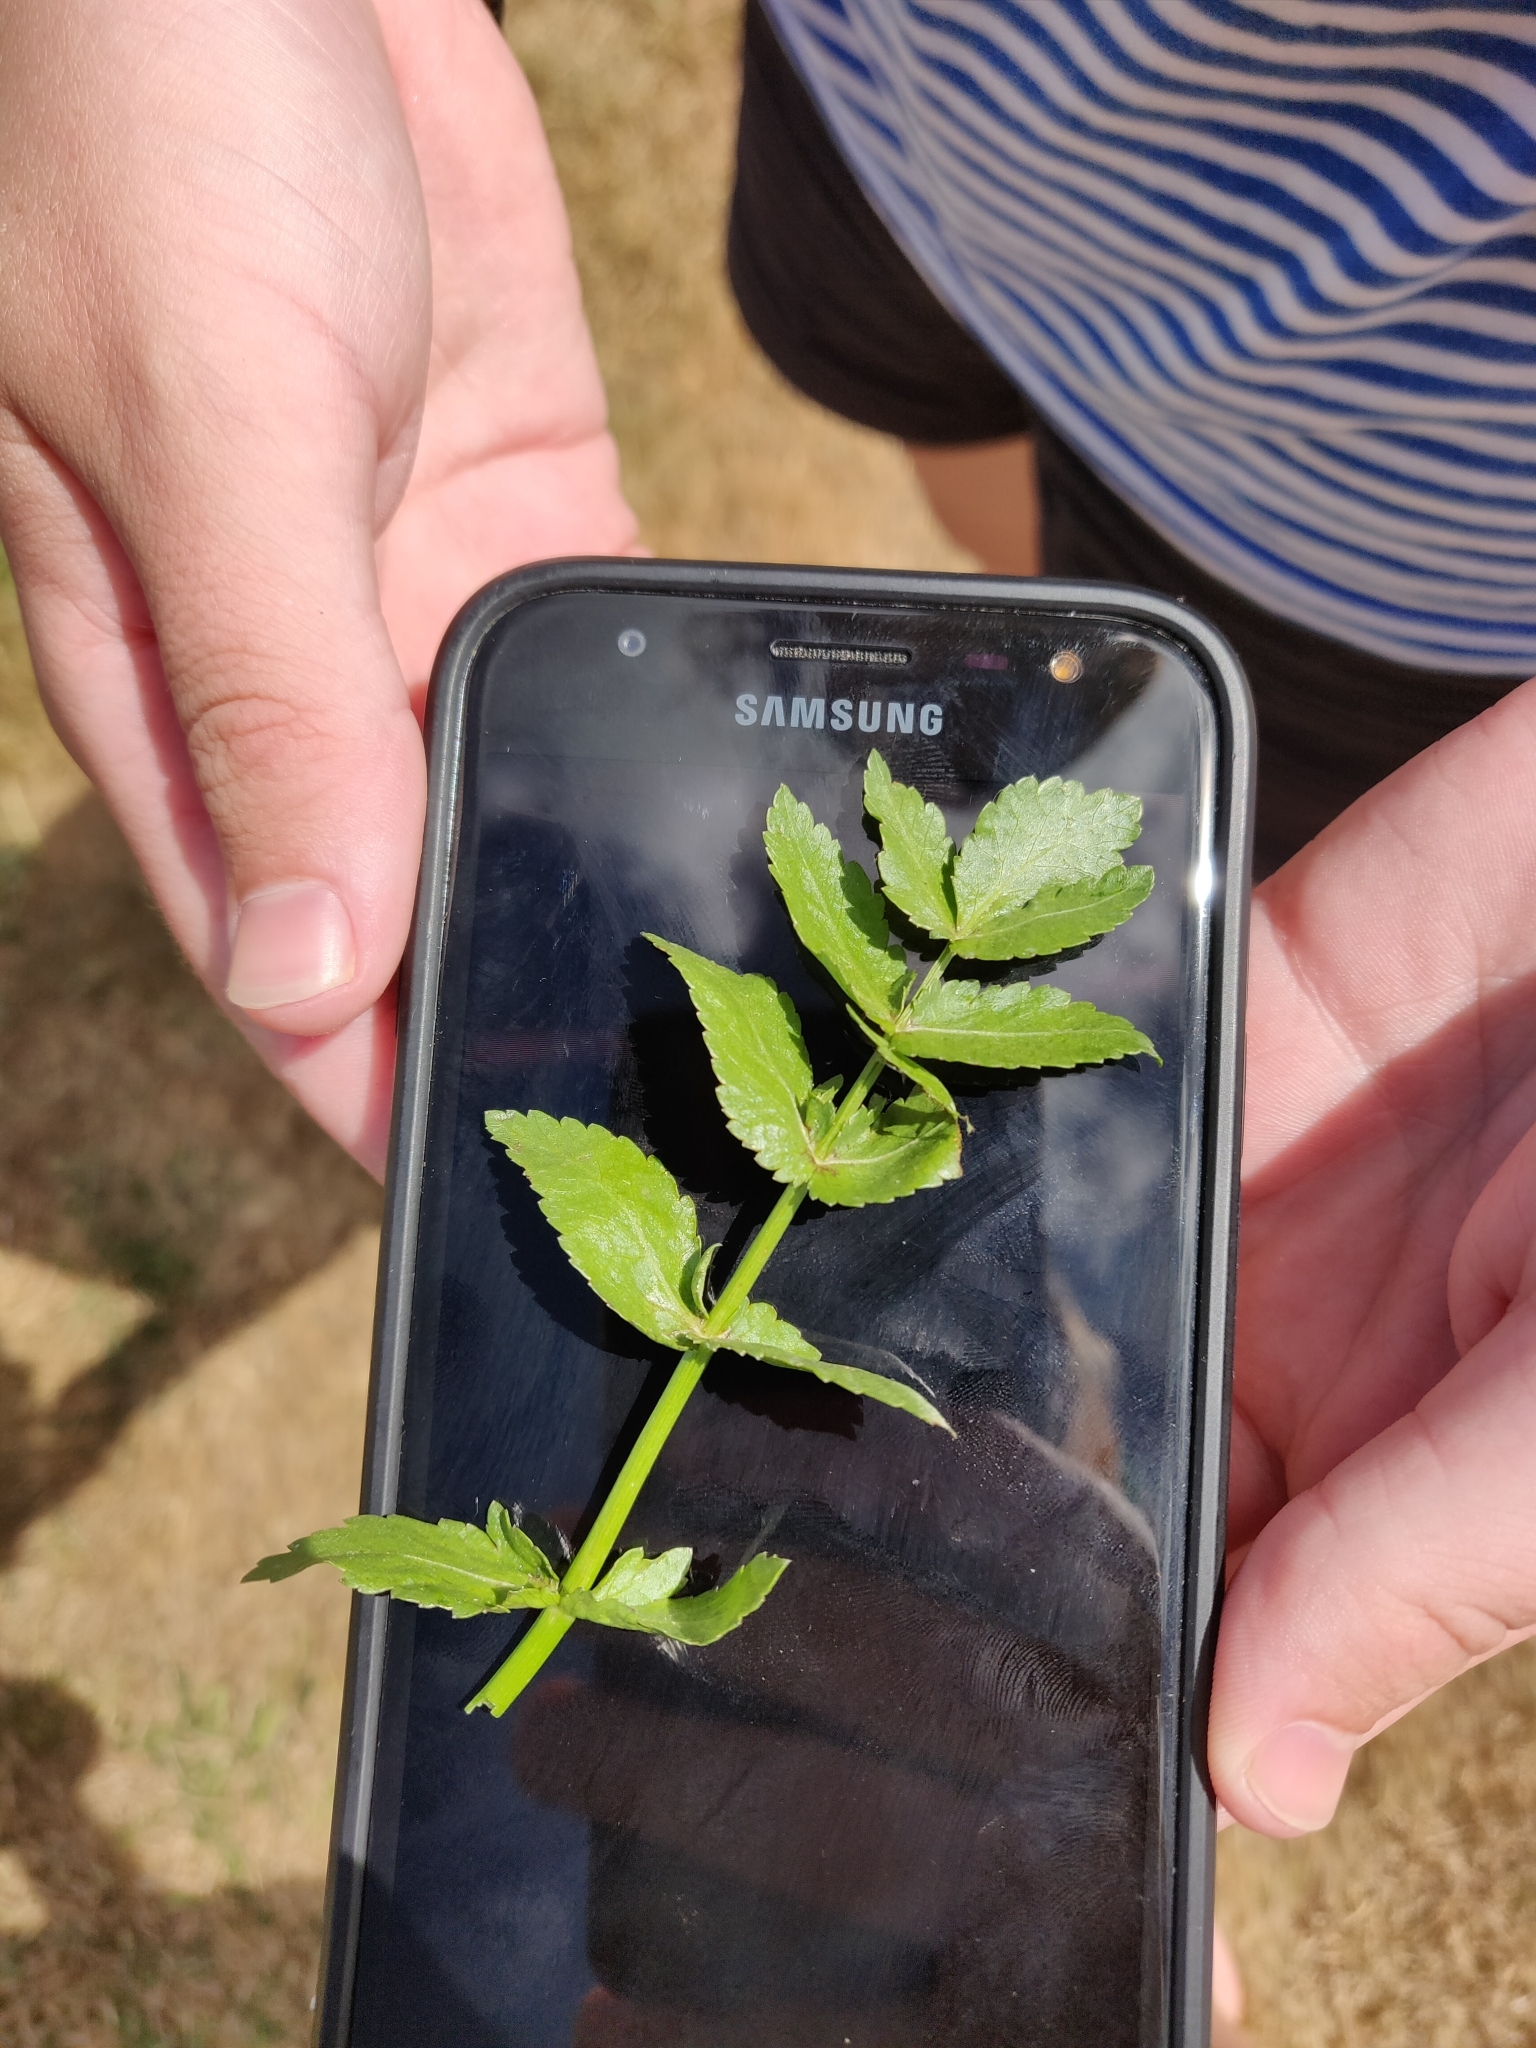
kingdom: Plantae
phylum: Tracheophyta
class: Magnoliopsida
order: Apiales
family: Apiaceae
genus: Helosciadium
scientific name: Helosciadium nodiflorum
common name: Fool's-watercress
